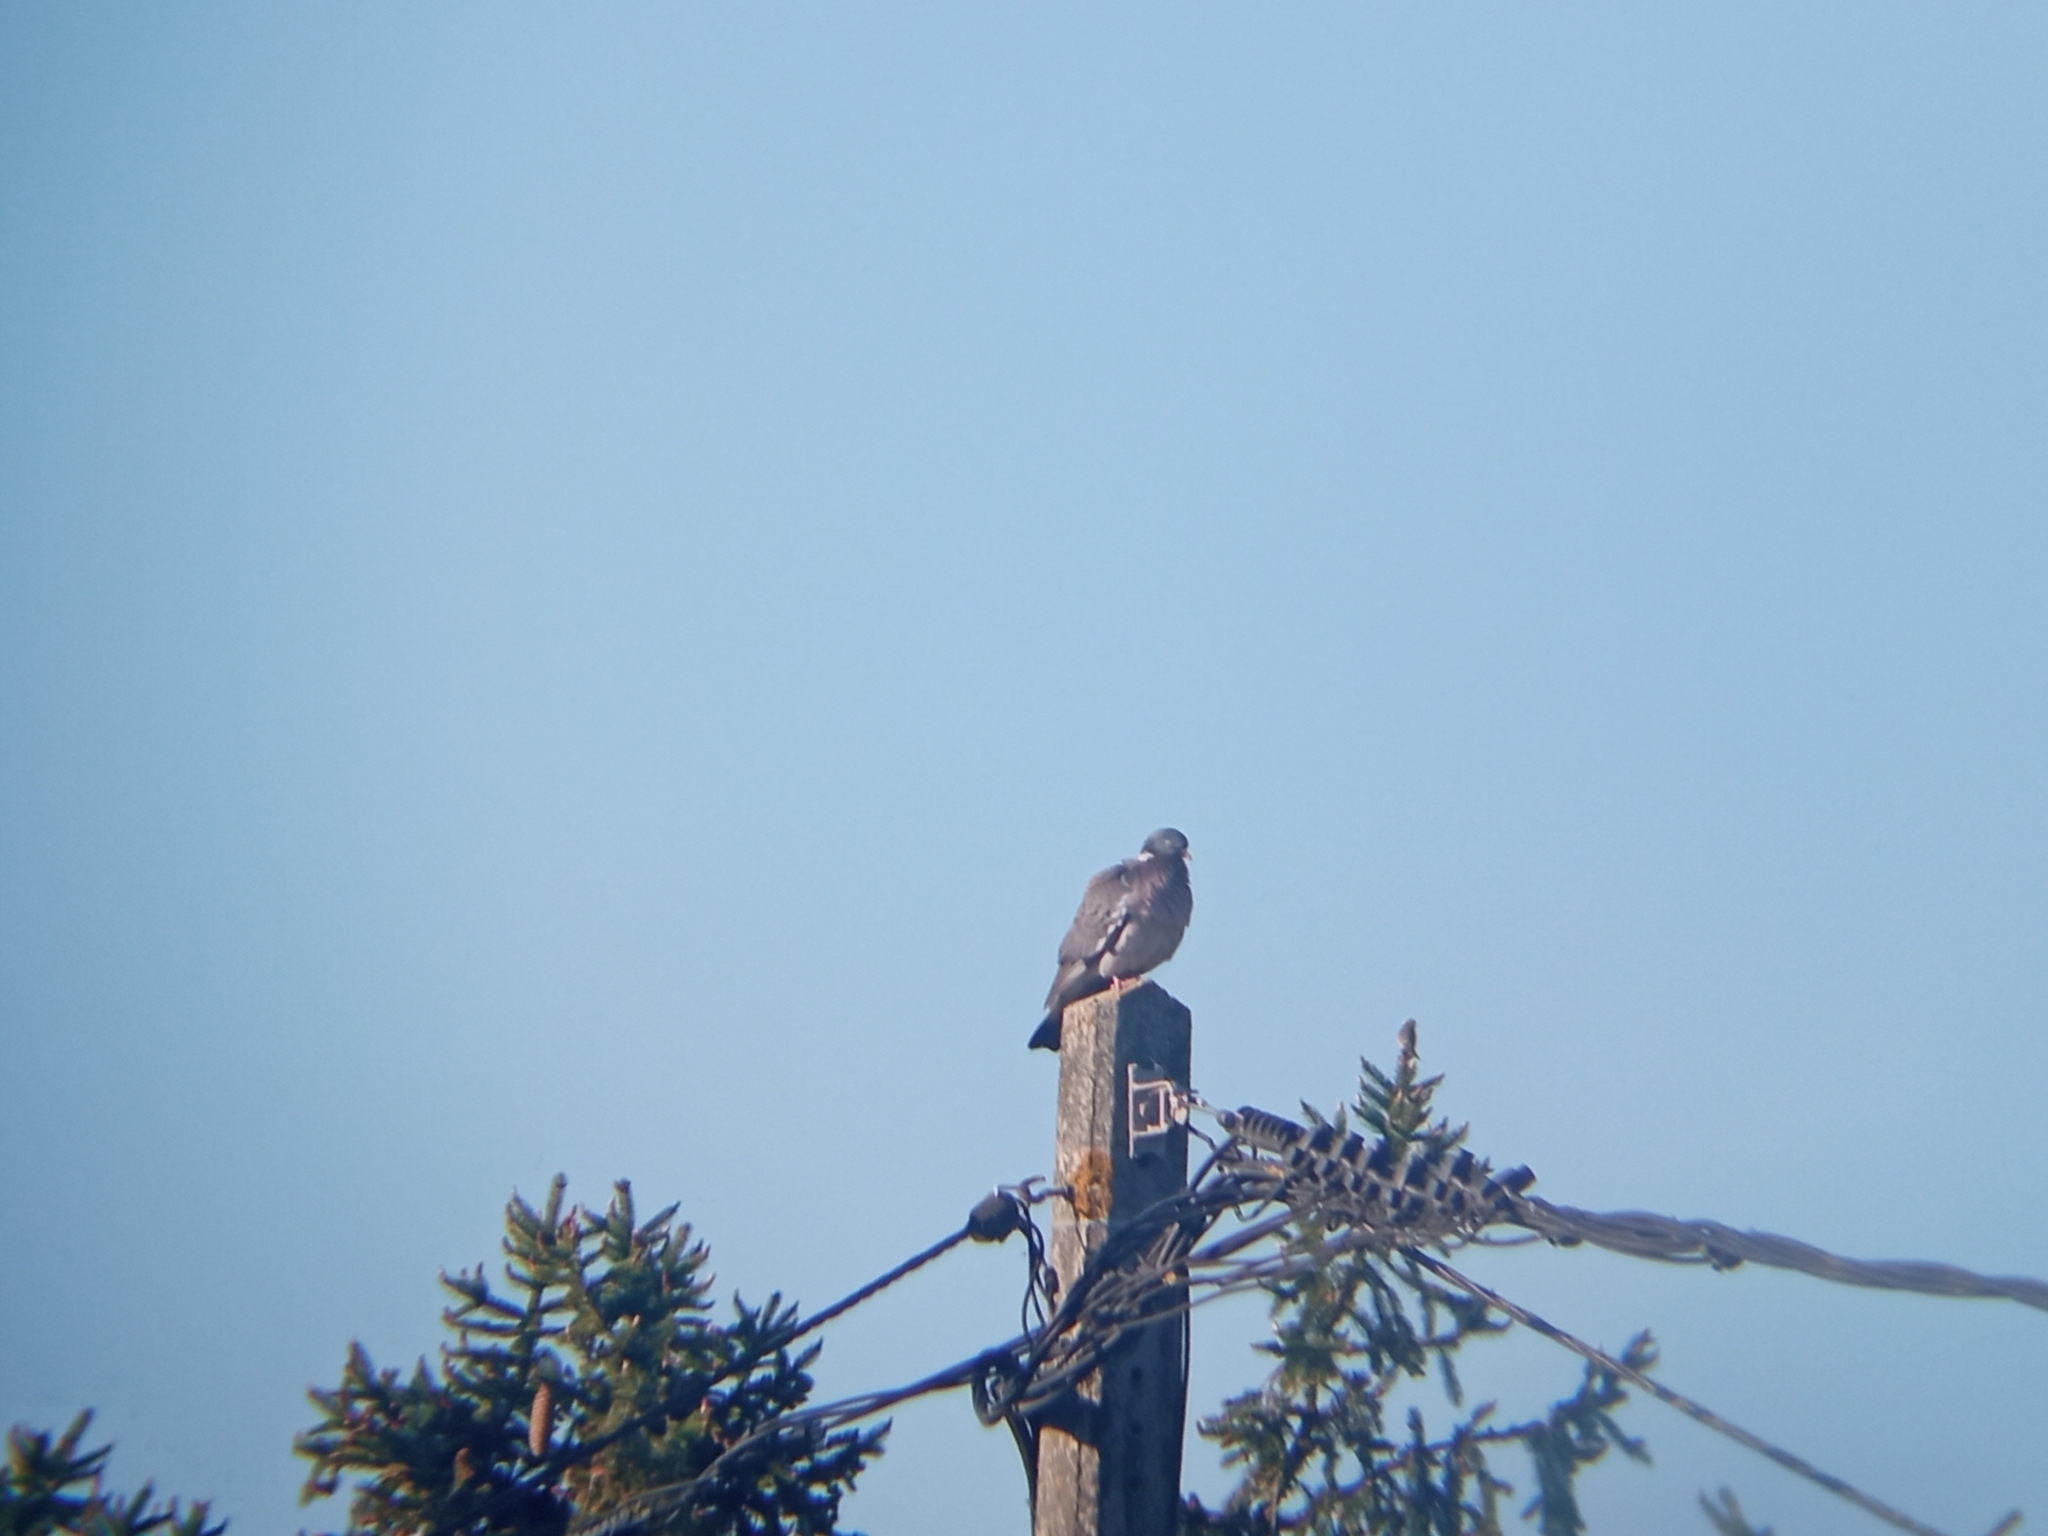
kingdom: Animalia
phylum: Chordata
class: Aves
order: Columbiformes
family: Columbidae
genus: Columba
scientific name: Columba palumbus
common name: Common wood pigeon
